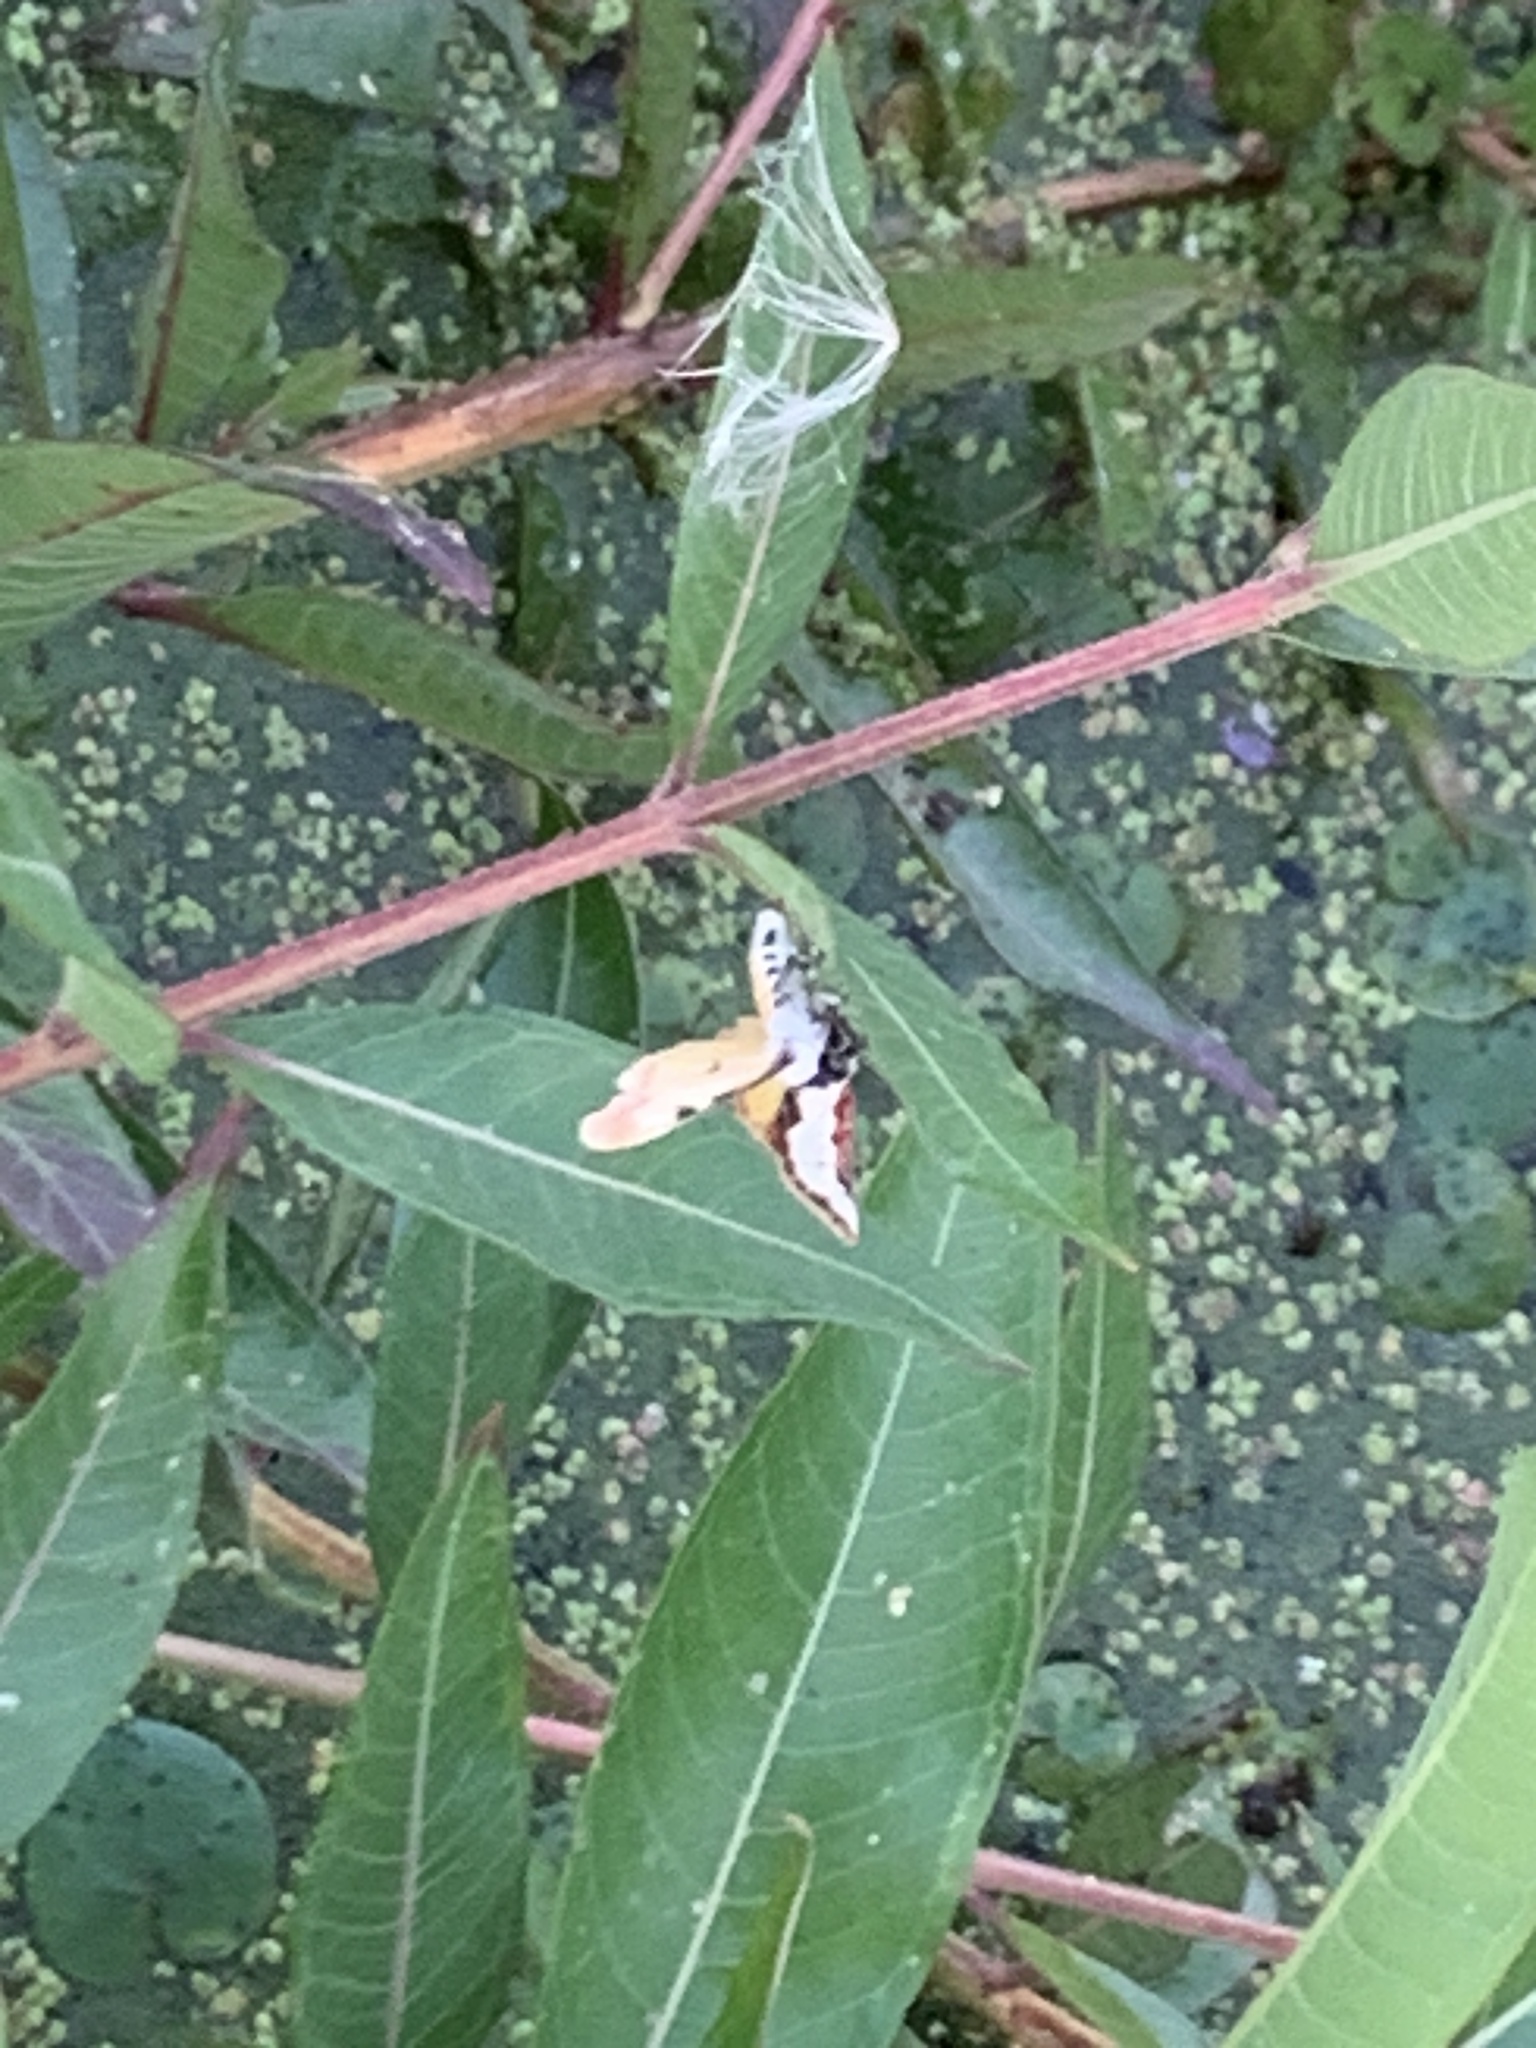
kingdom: Animalia
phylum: Arthropoda
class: Insecta
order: Lepidoptera
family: Noctuidae
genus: Eudryas
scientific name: Eudryas unio
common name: Pearly wood-nymph
